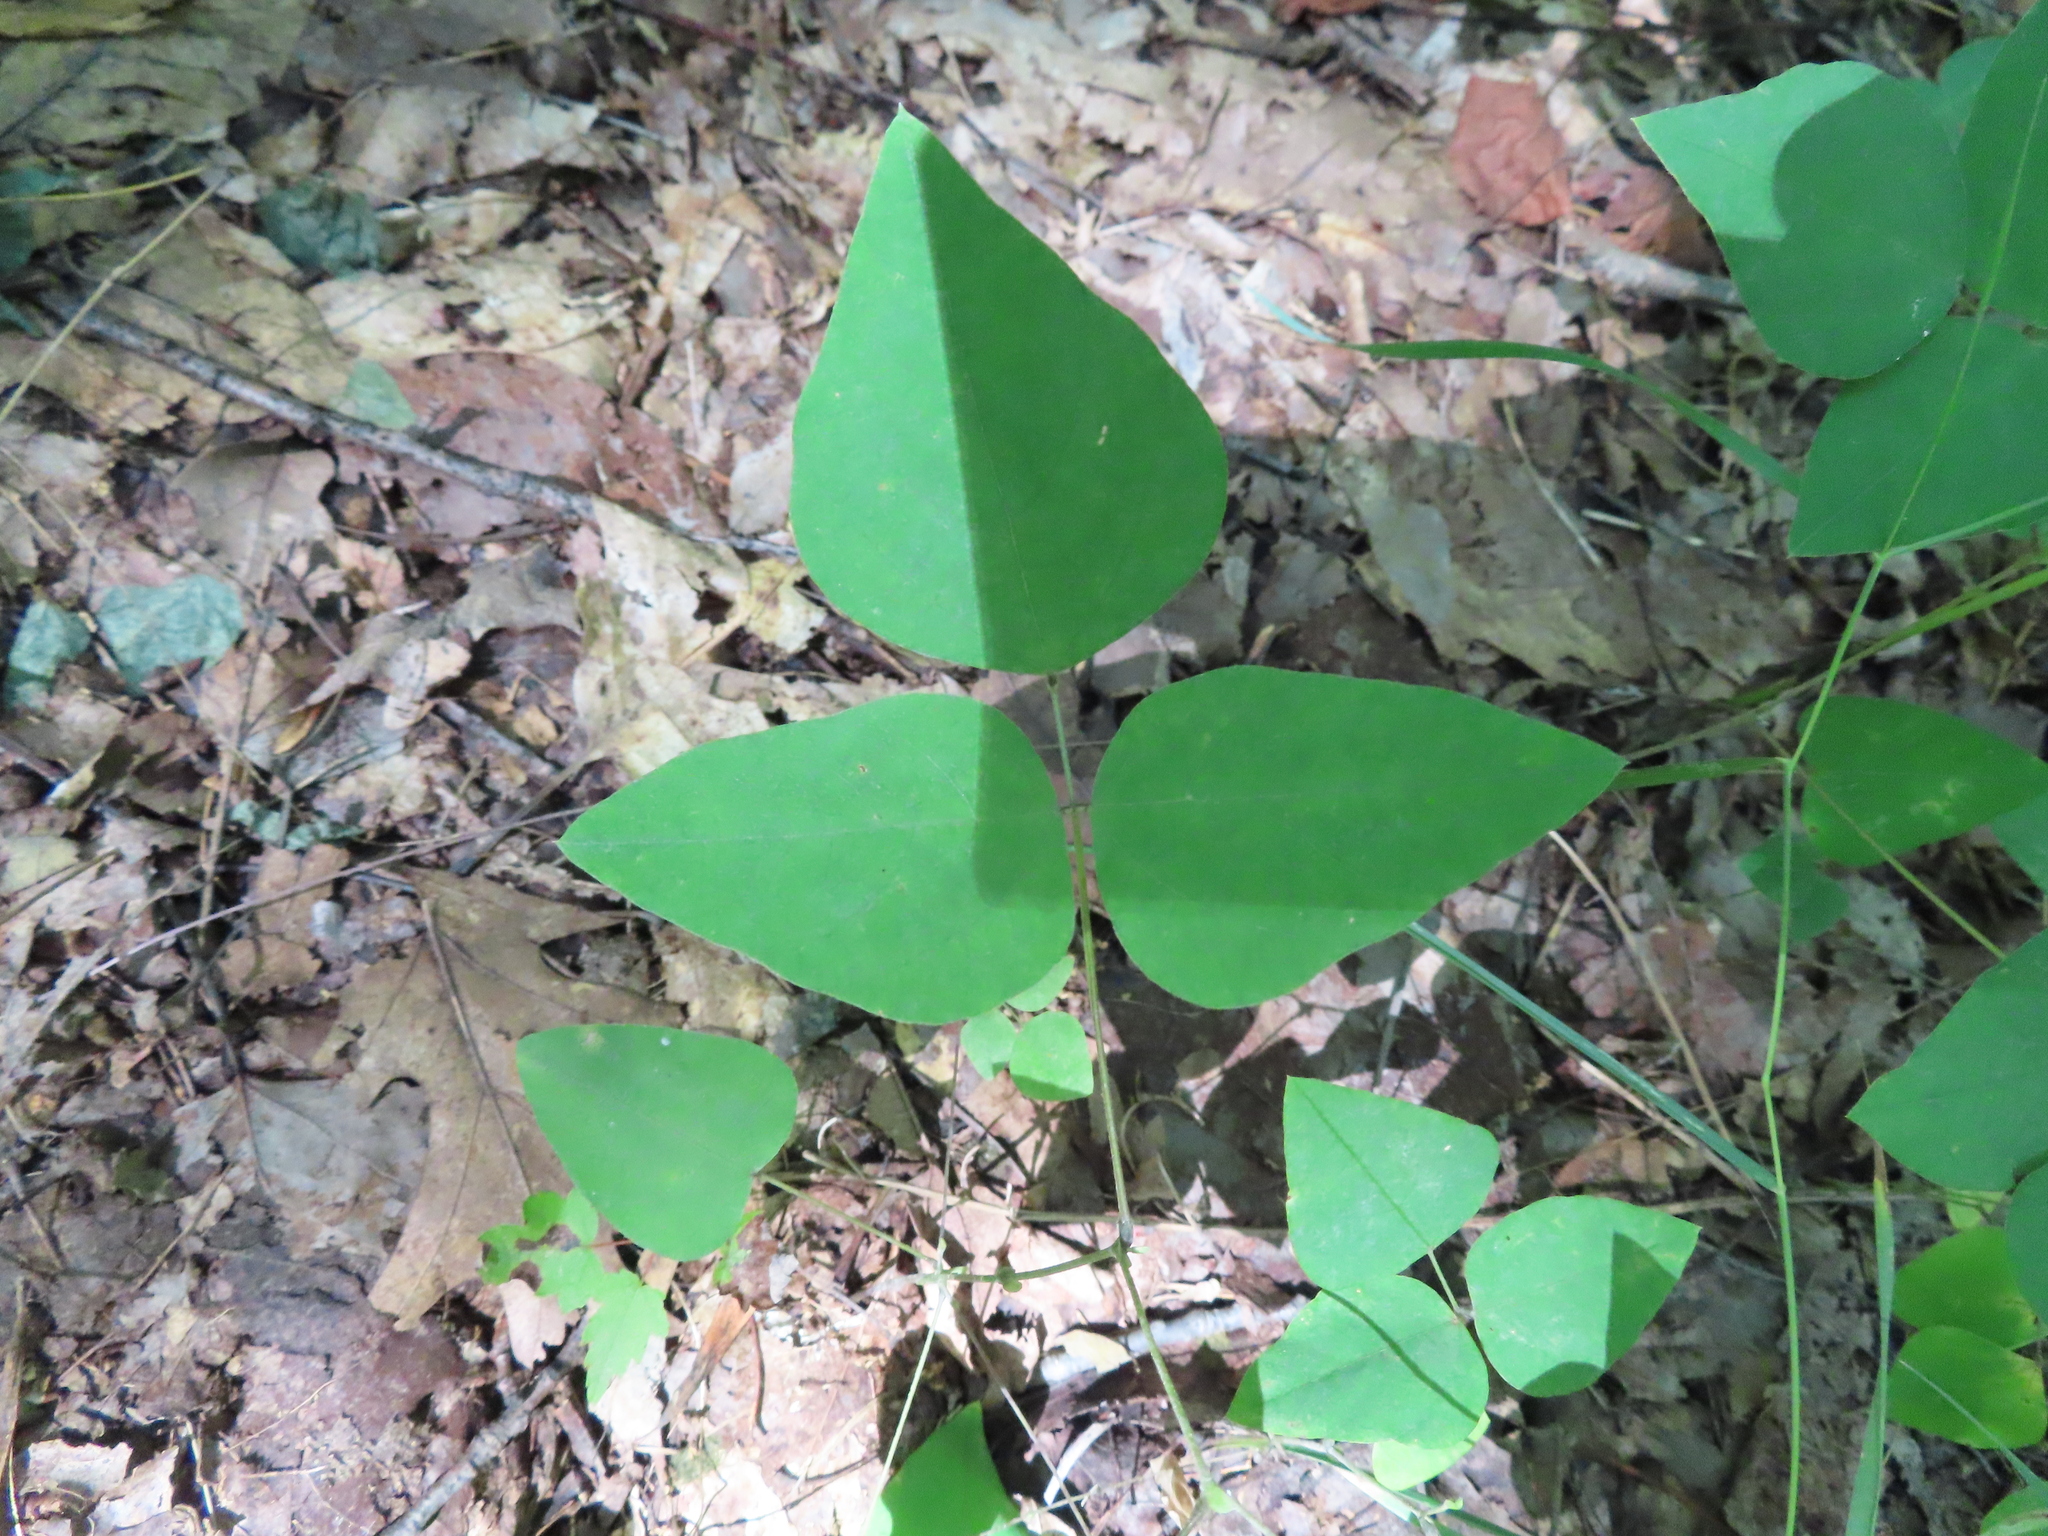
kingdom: Plantae
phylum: Tracheophyta
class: Magnoliopsida
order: Fabales
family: Fabaceae
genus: Amphicarpaea
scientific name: Amphicarpaea bracteata
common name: American hog peanut
